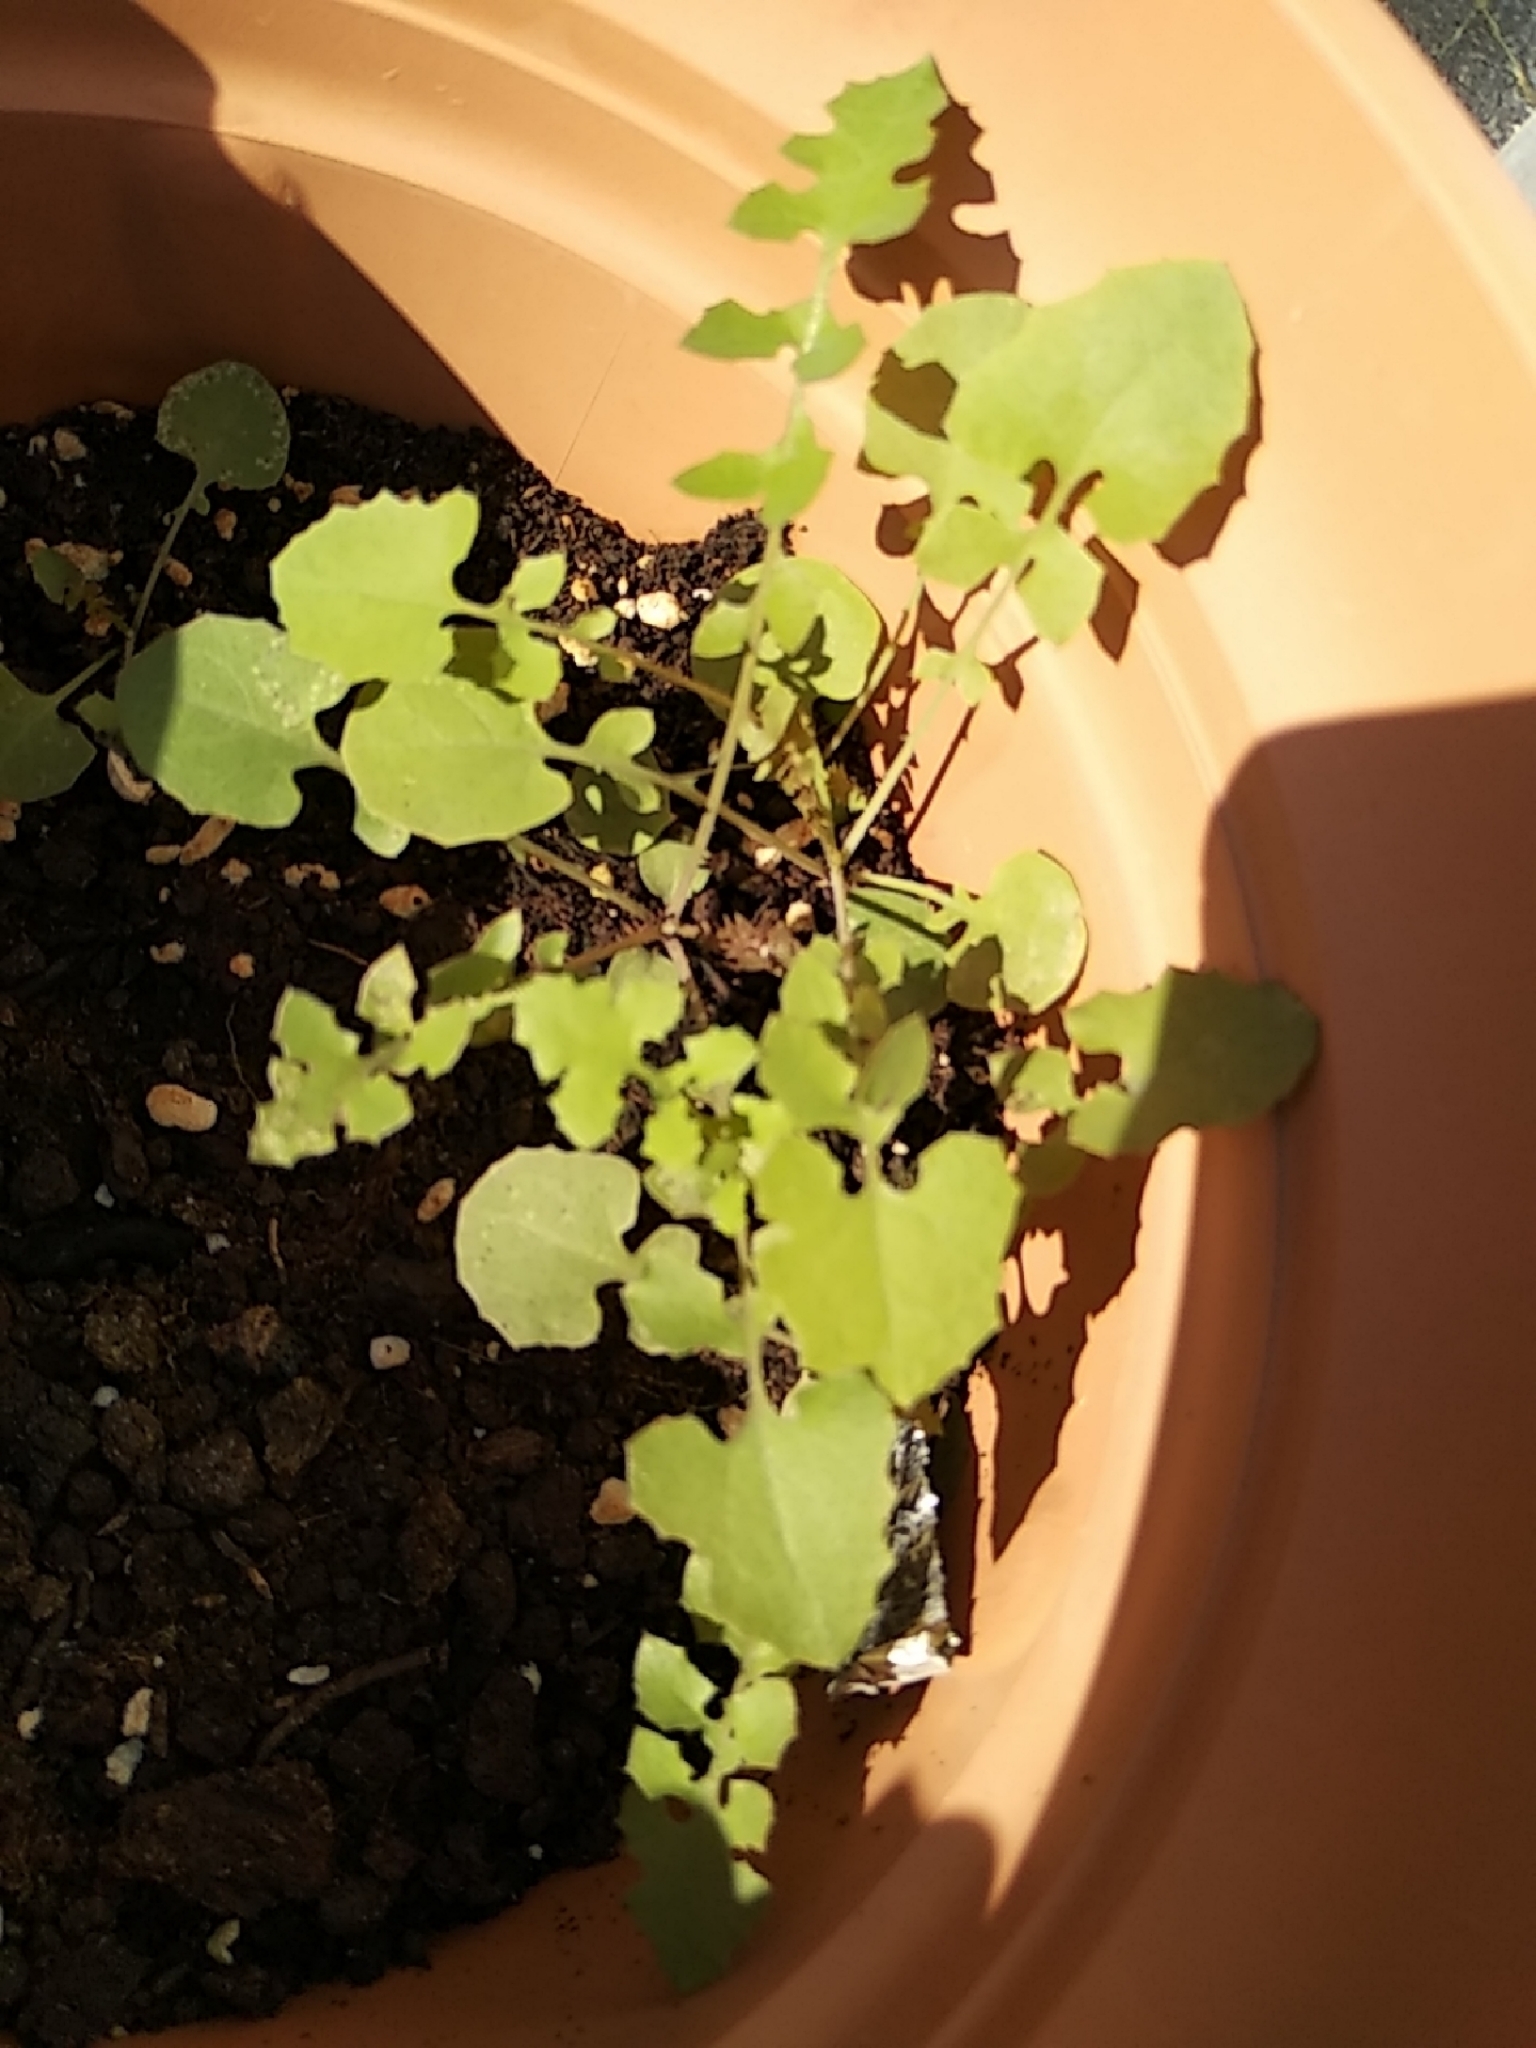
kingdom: Plantae
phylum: Tracheophyta
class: Magnoliopsida
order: Asterales
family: Asteraceae
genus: Mycelis
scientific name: Mycelis muralis
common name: Wall lettuce
